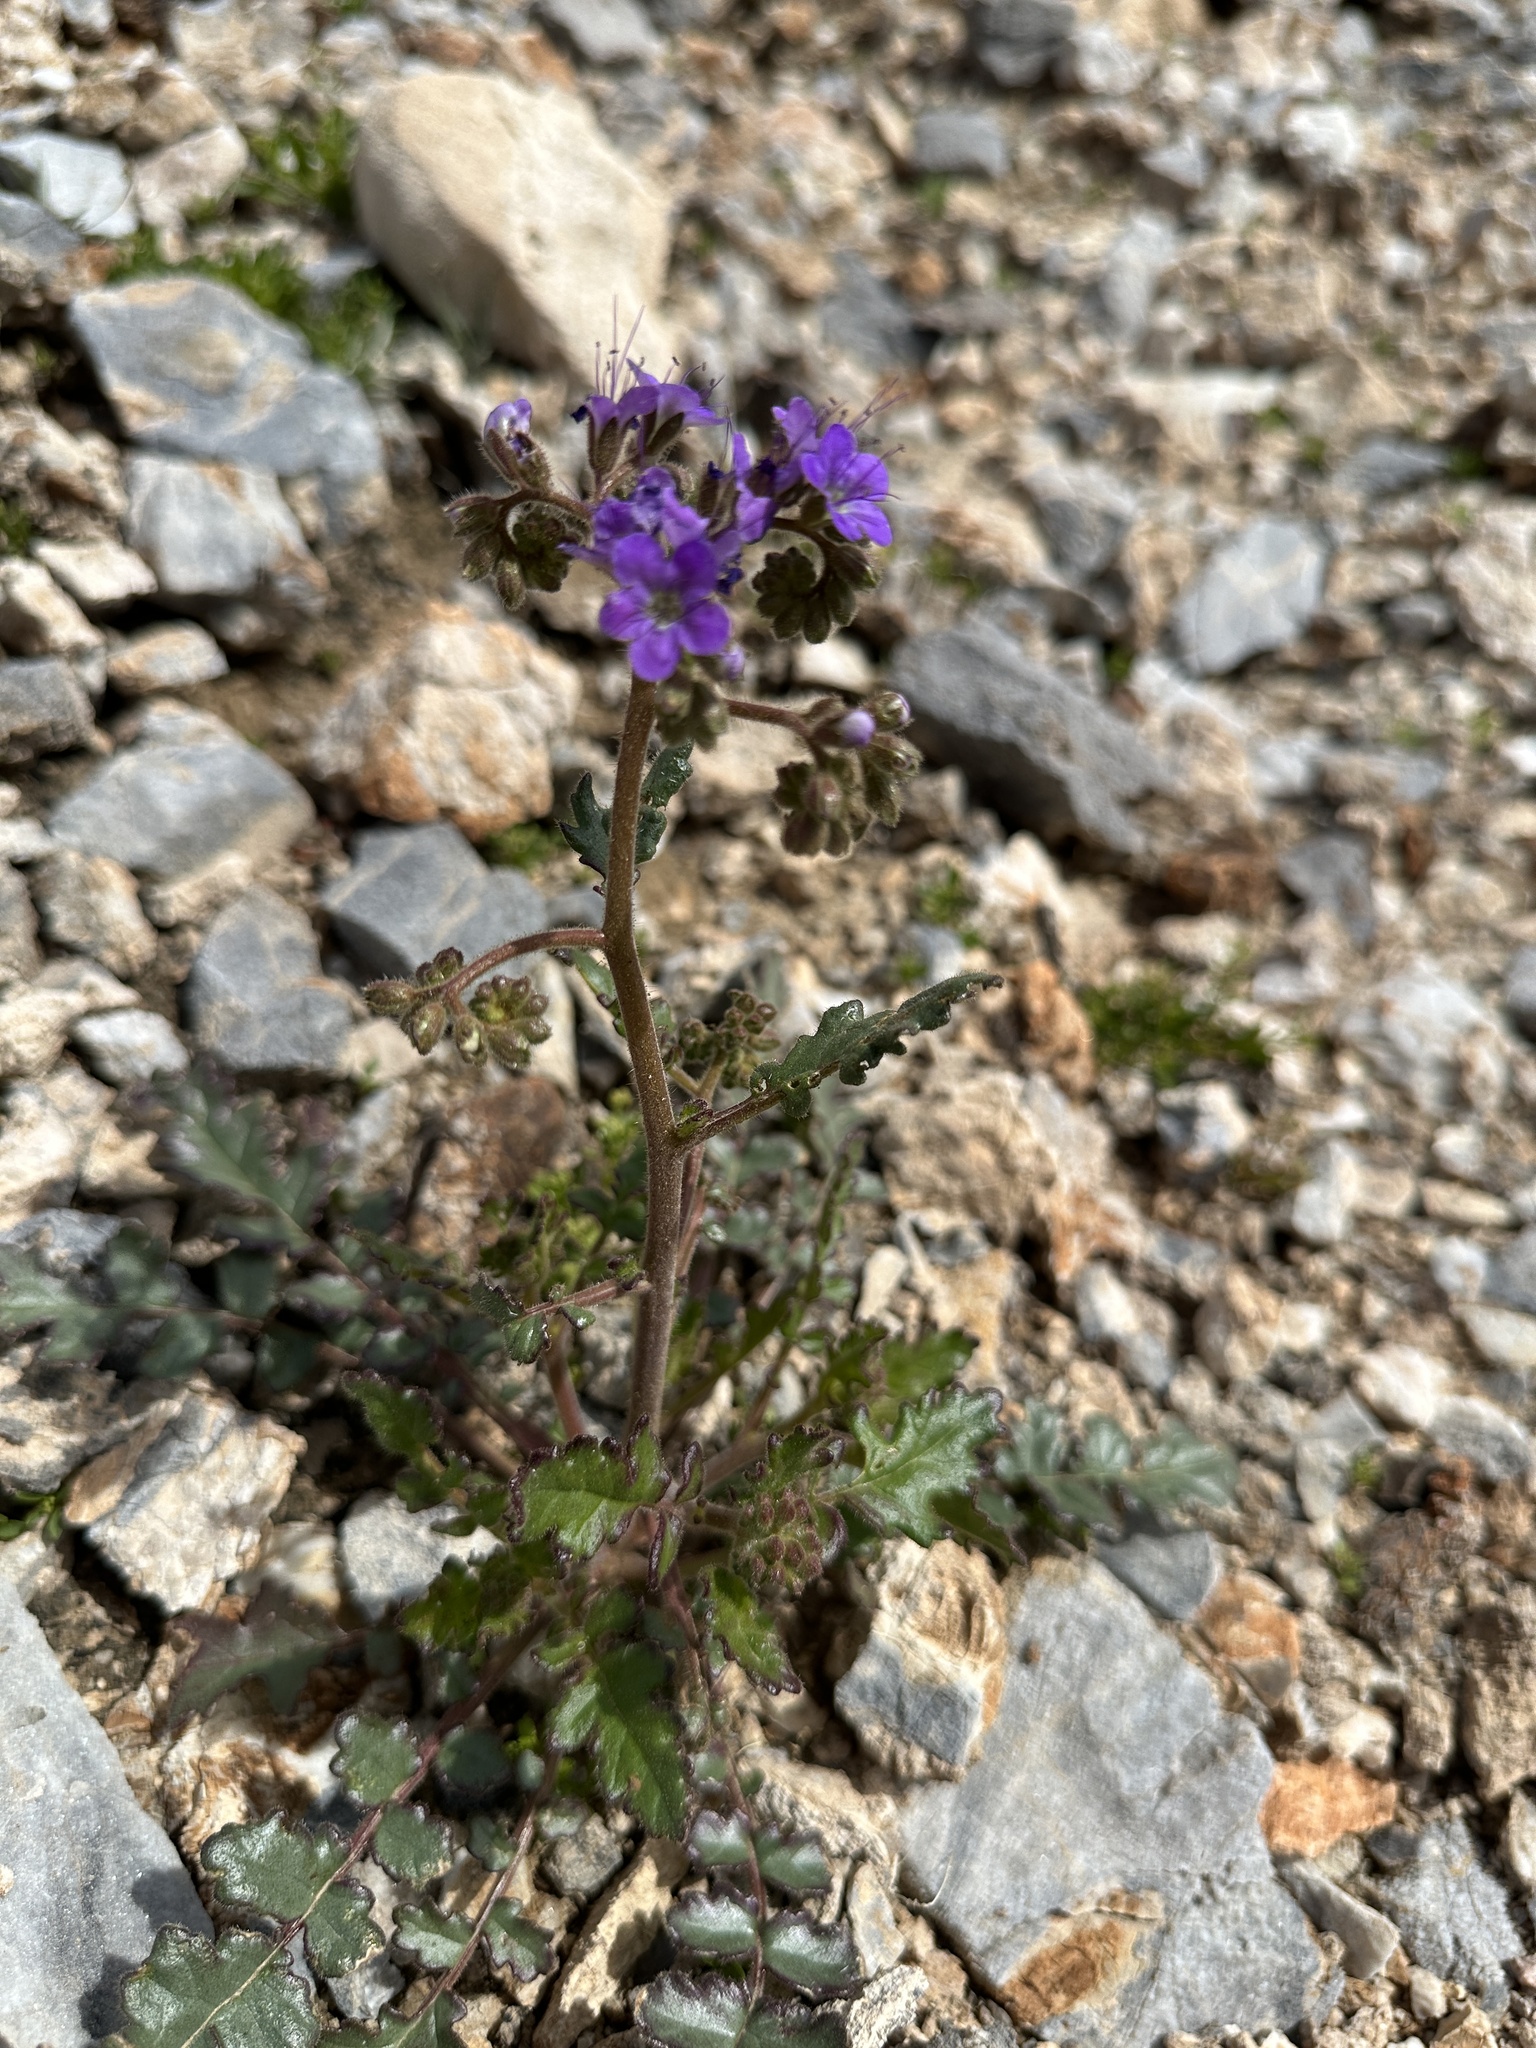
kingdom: Plantae
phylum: Tracheophyta
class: Magnoliopsida
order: Boraginales
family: Hydrophyllaceae
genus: Phacelia
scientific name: Phacelia crenulata
